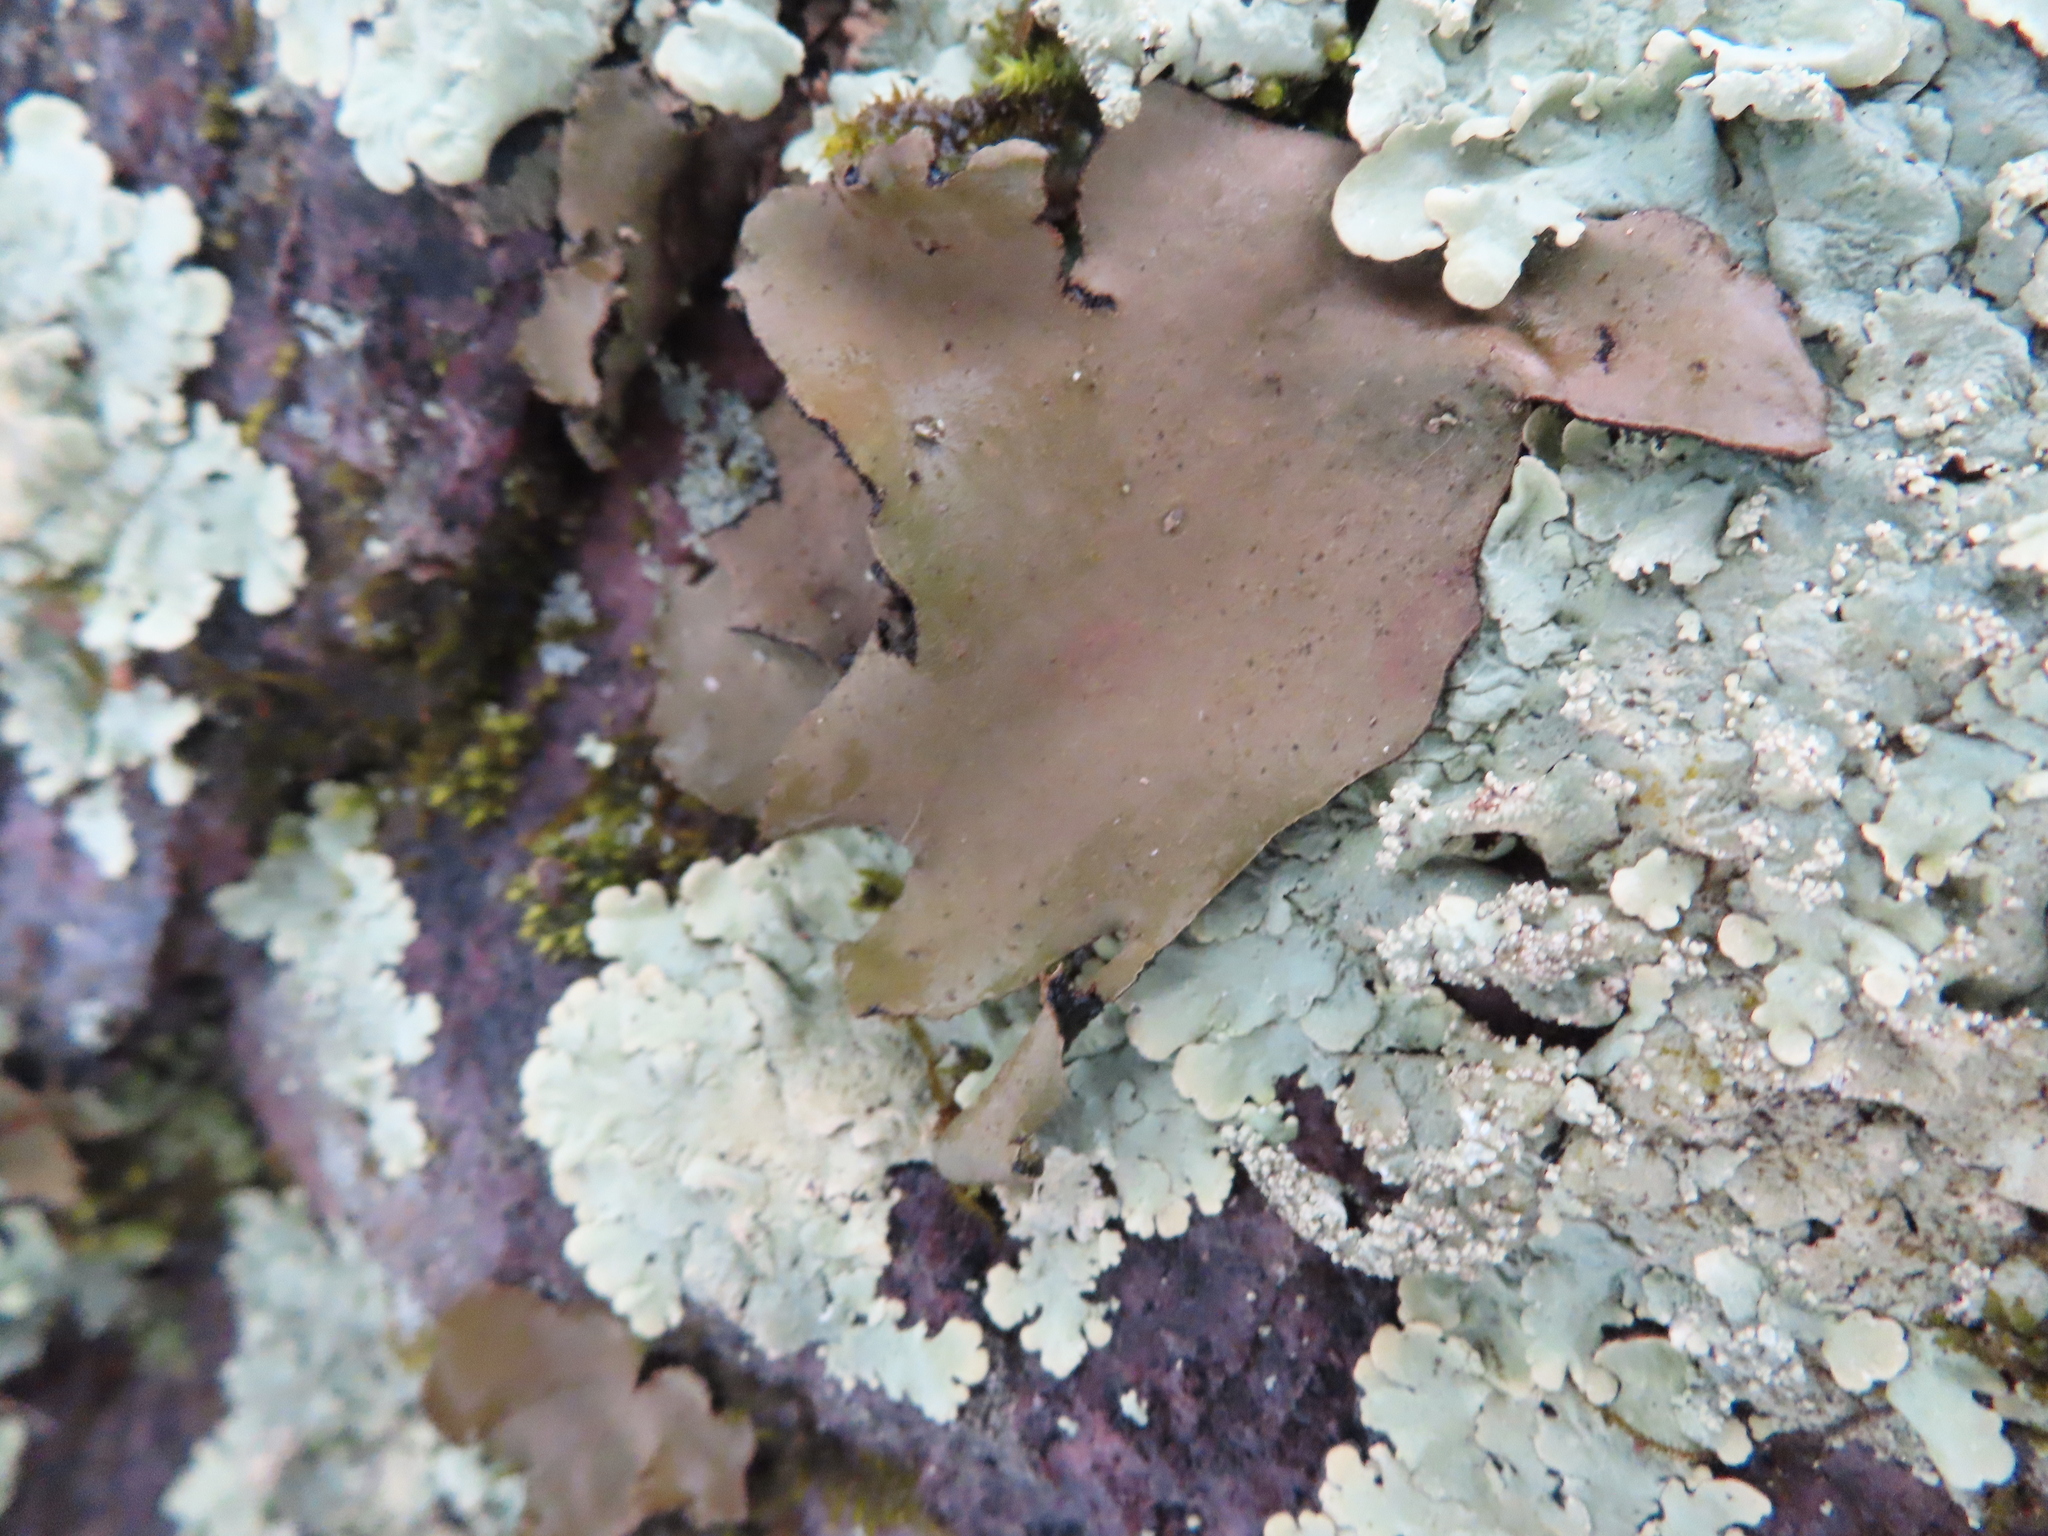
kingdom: Fungi
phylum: Ascomycota
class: Lecanoromycetes
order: Umbilicariales
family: Umbilicariaceae
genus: Umbilicaria
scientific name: Umbilicaria mammulata
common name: Smooth rock tripe
